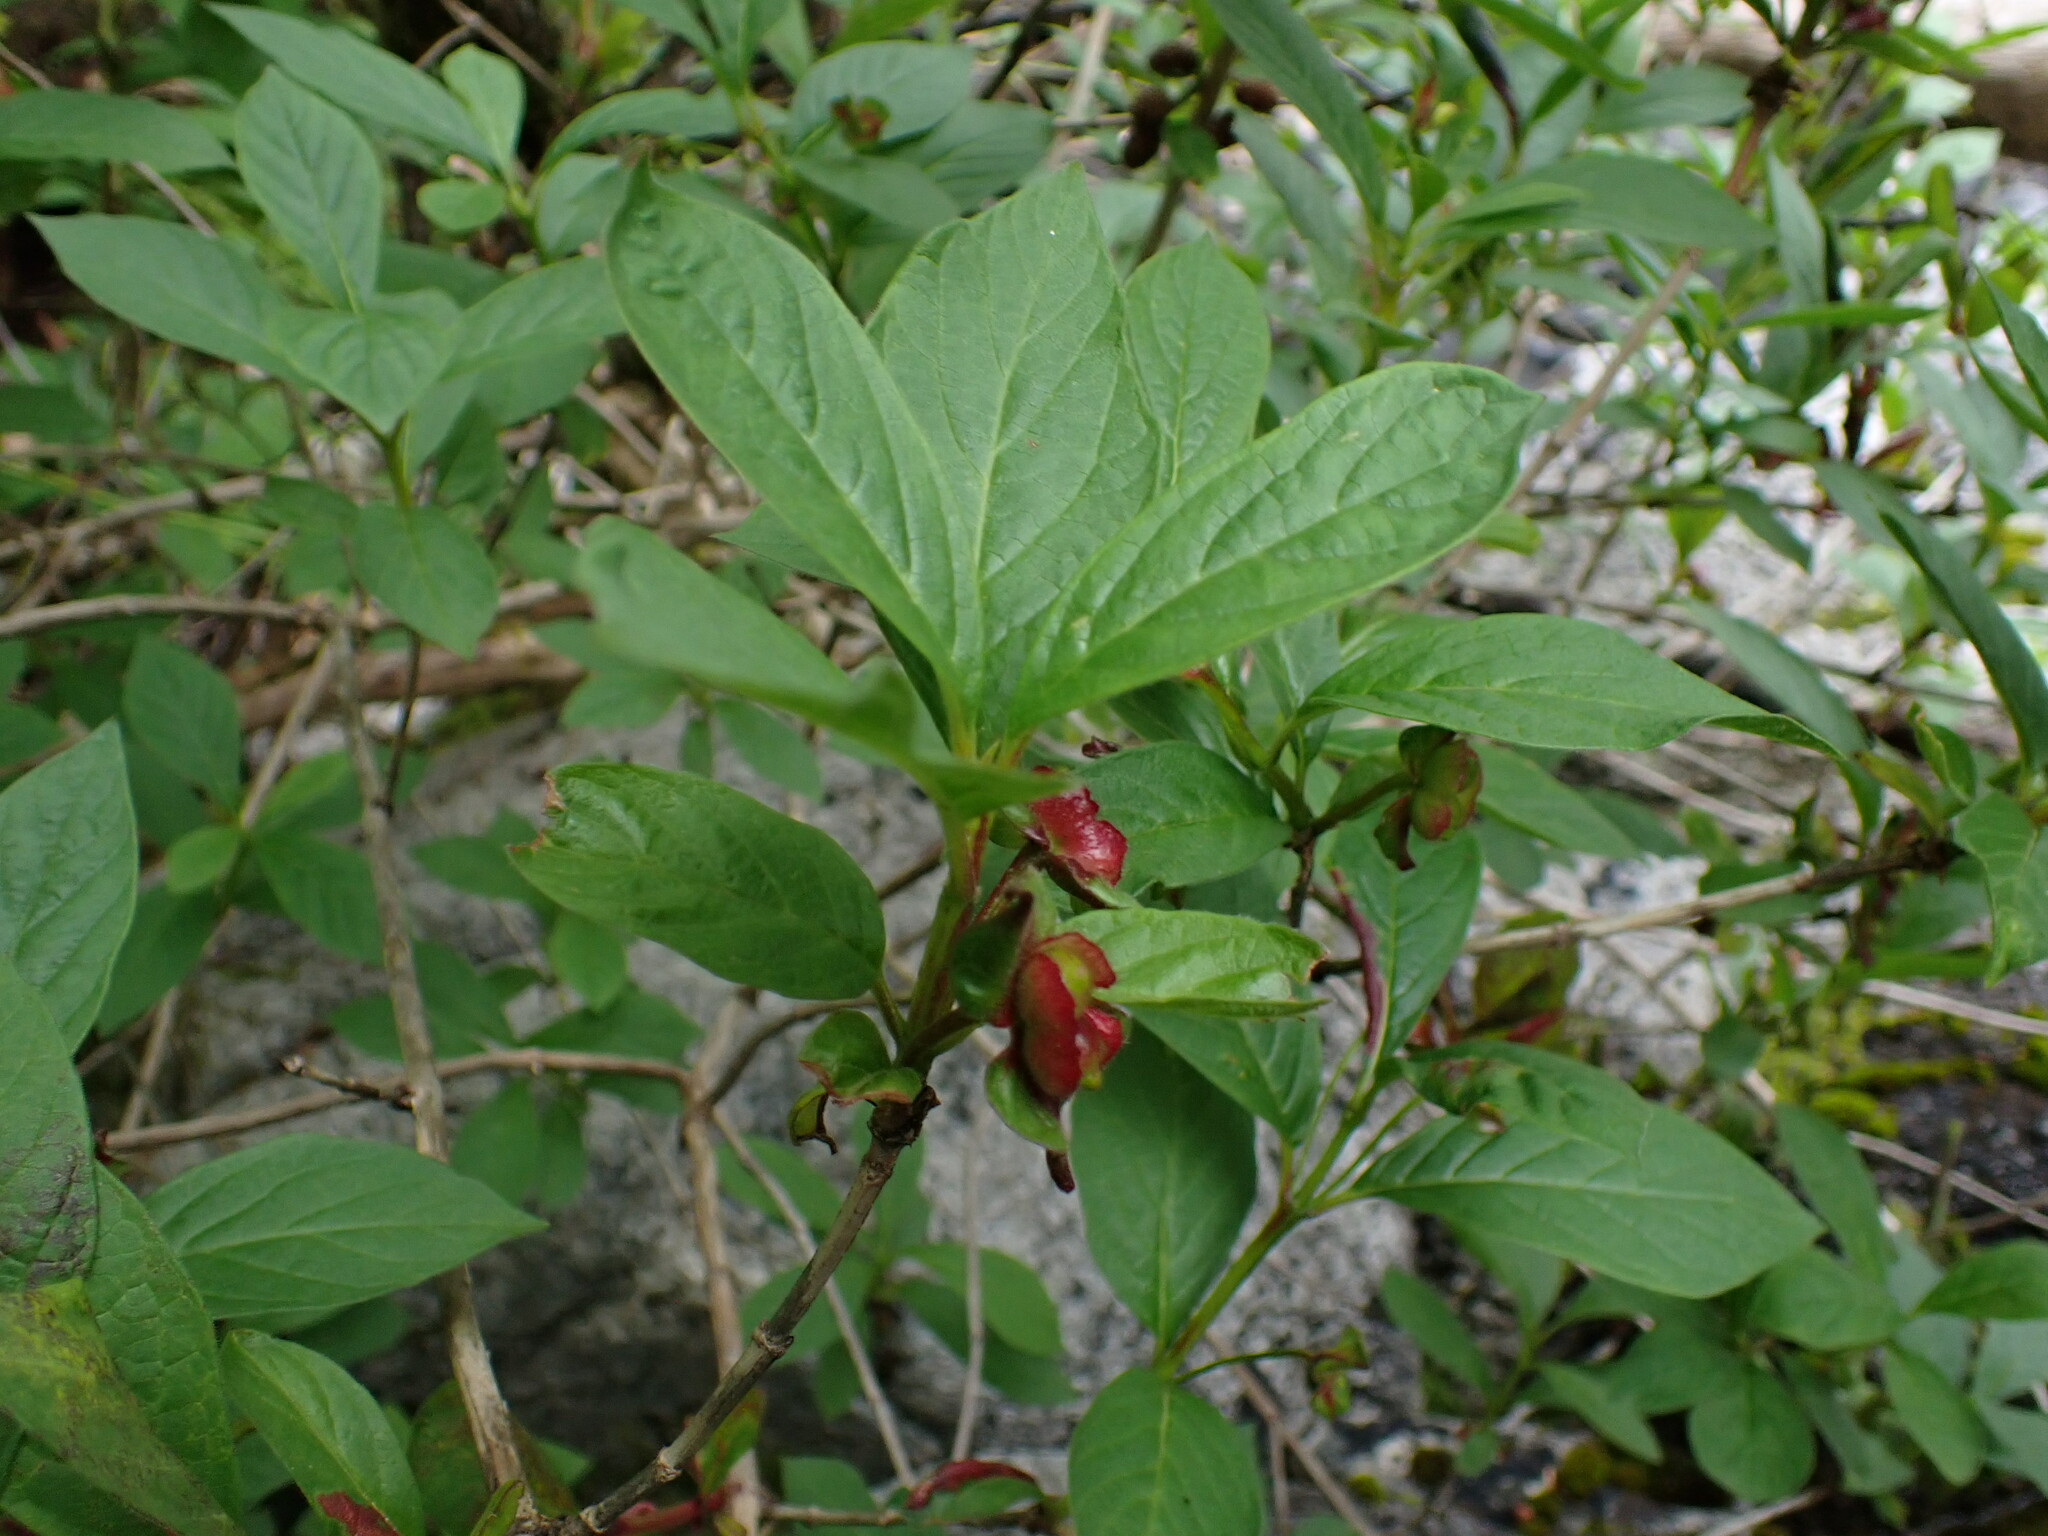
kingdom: Plantae
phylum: Tracheophyta
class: Magnoliopsida
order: Dipsacales
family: Caprifoliaceae
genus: Lonicera
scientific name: Lonicera involucrata
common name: Californian honeysuckle
